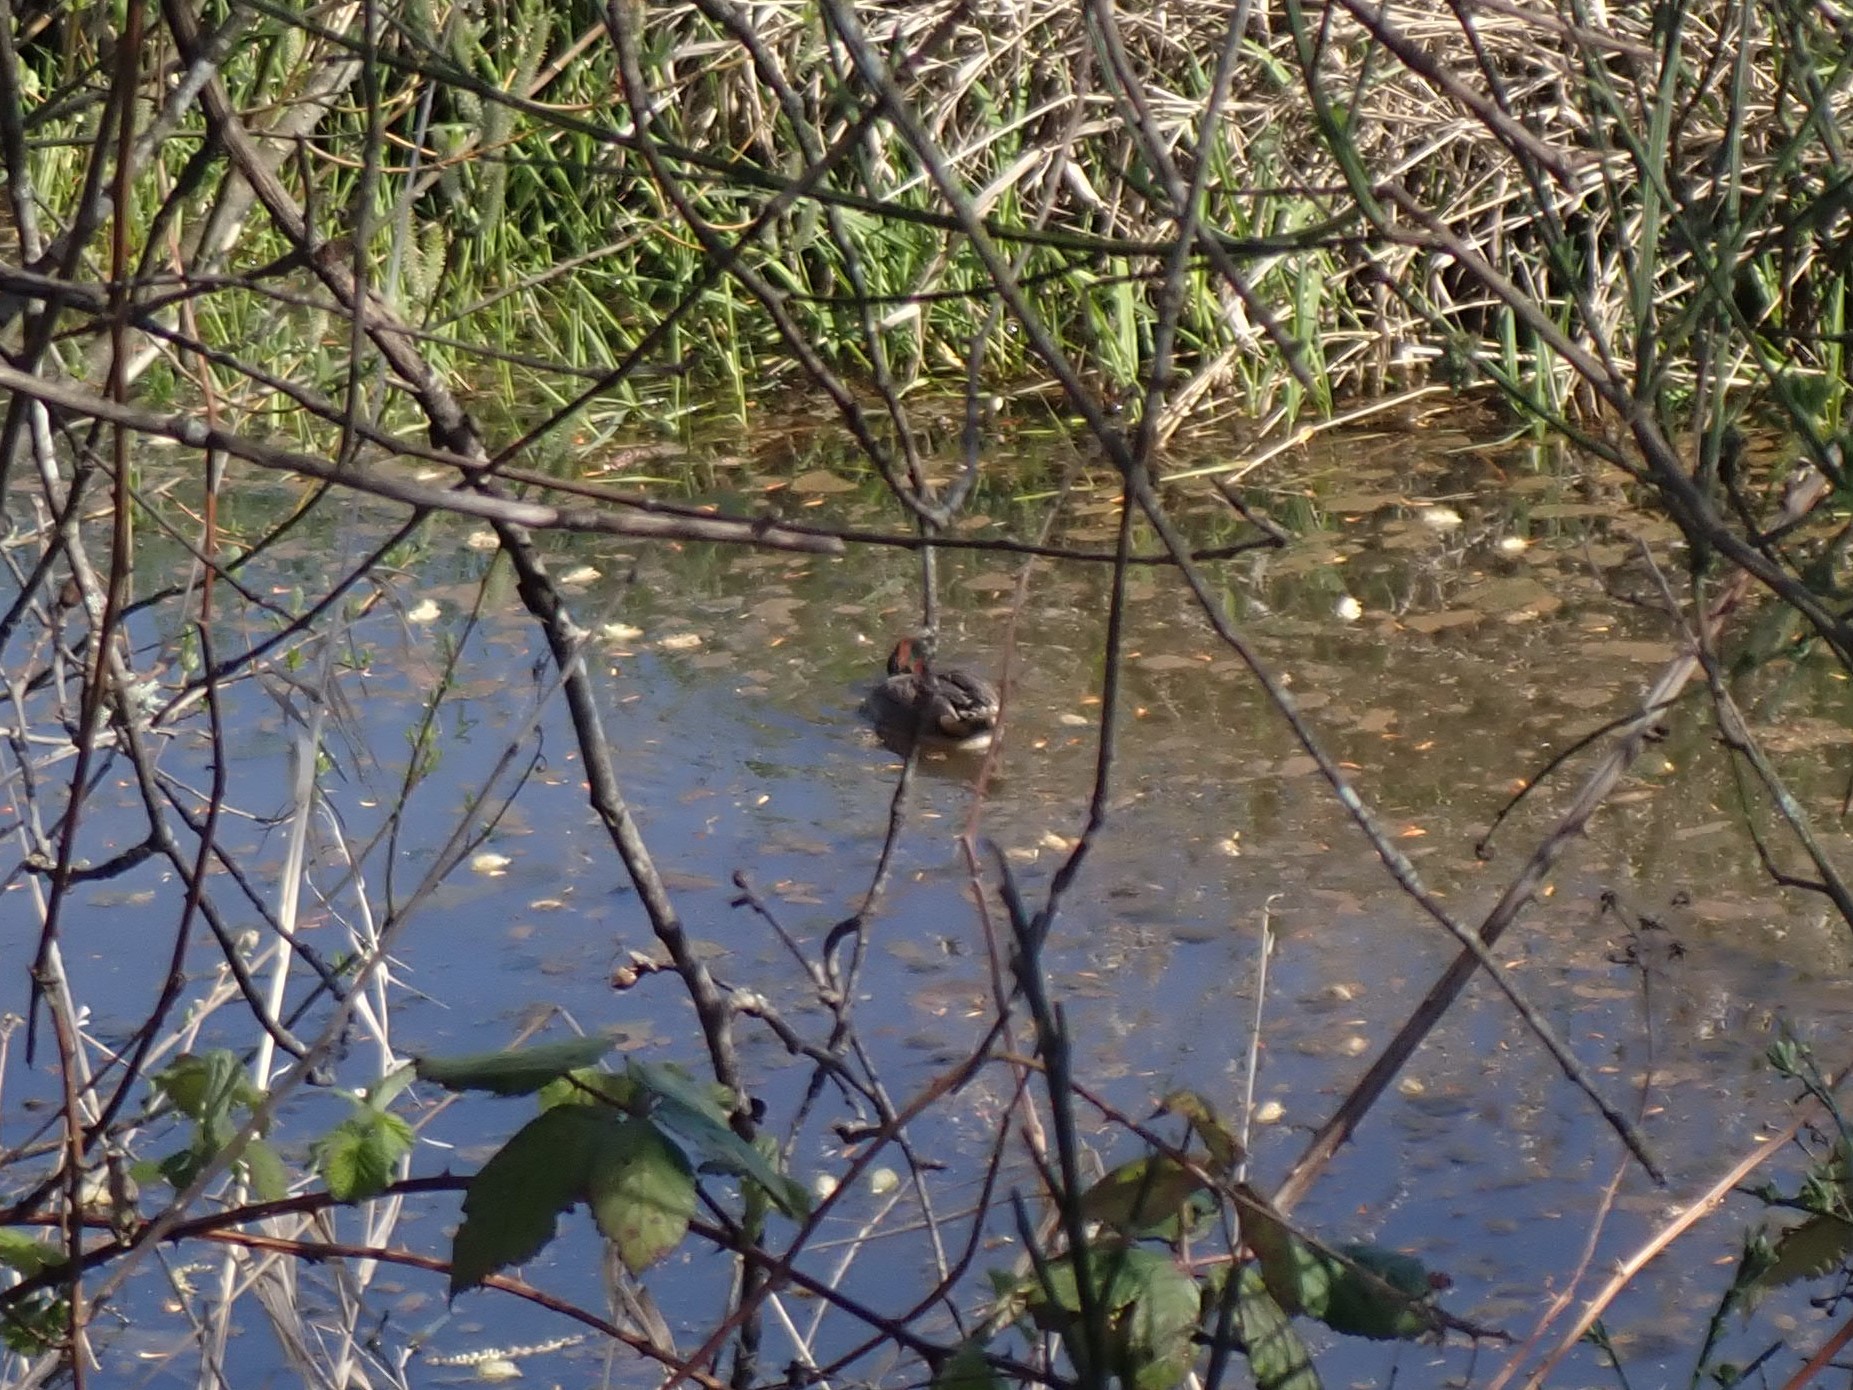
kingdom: Animalia
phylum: Chordata
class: Aves
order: Anseriformes
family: Anatidae
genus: Anas
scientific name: Anas crecca
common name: Eurasian teal
